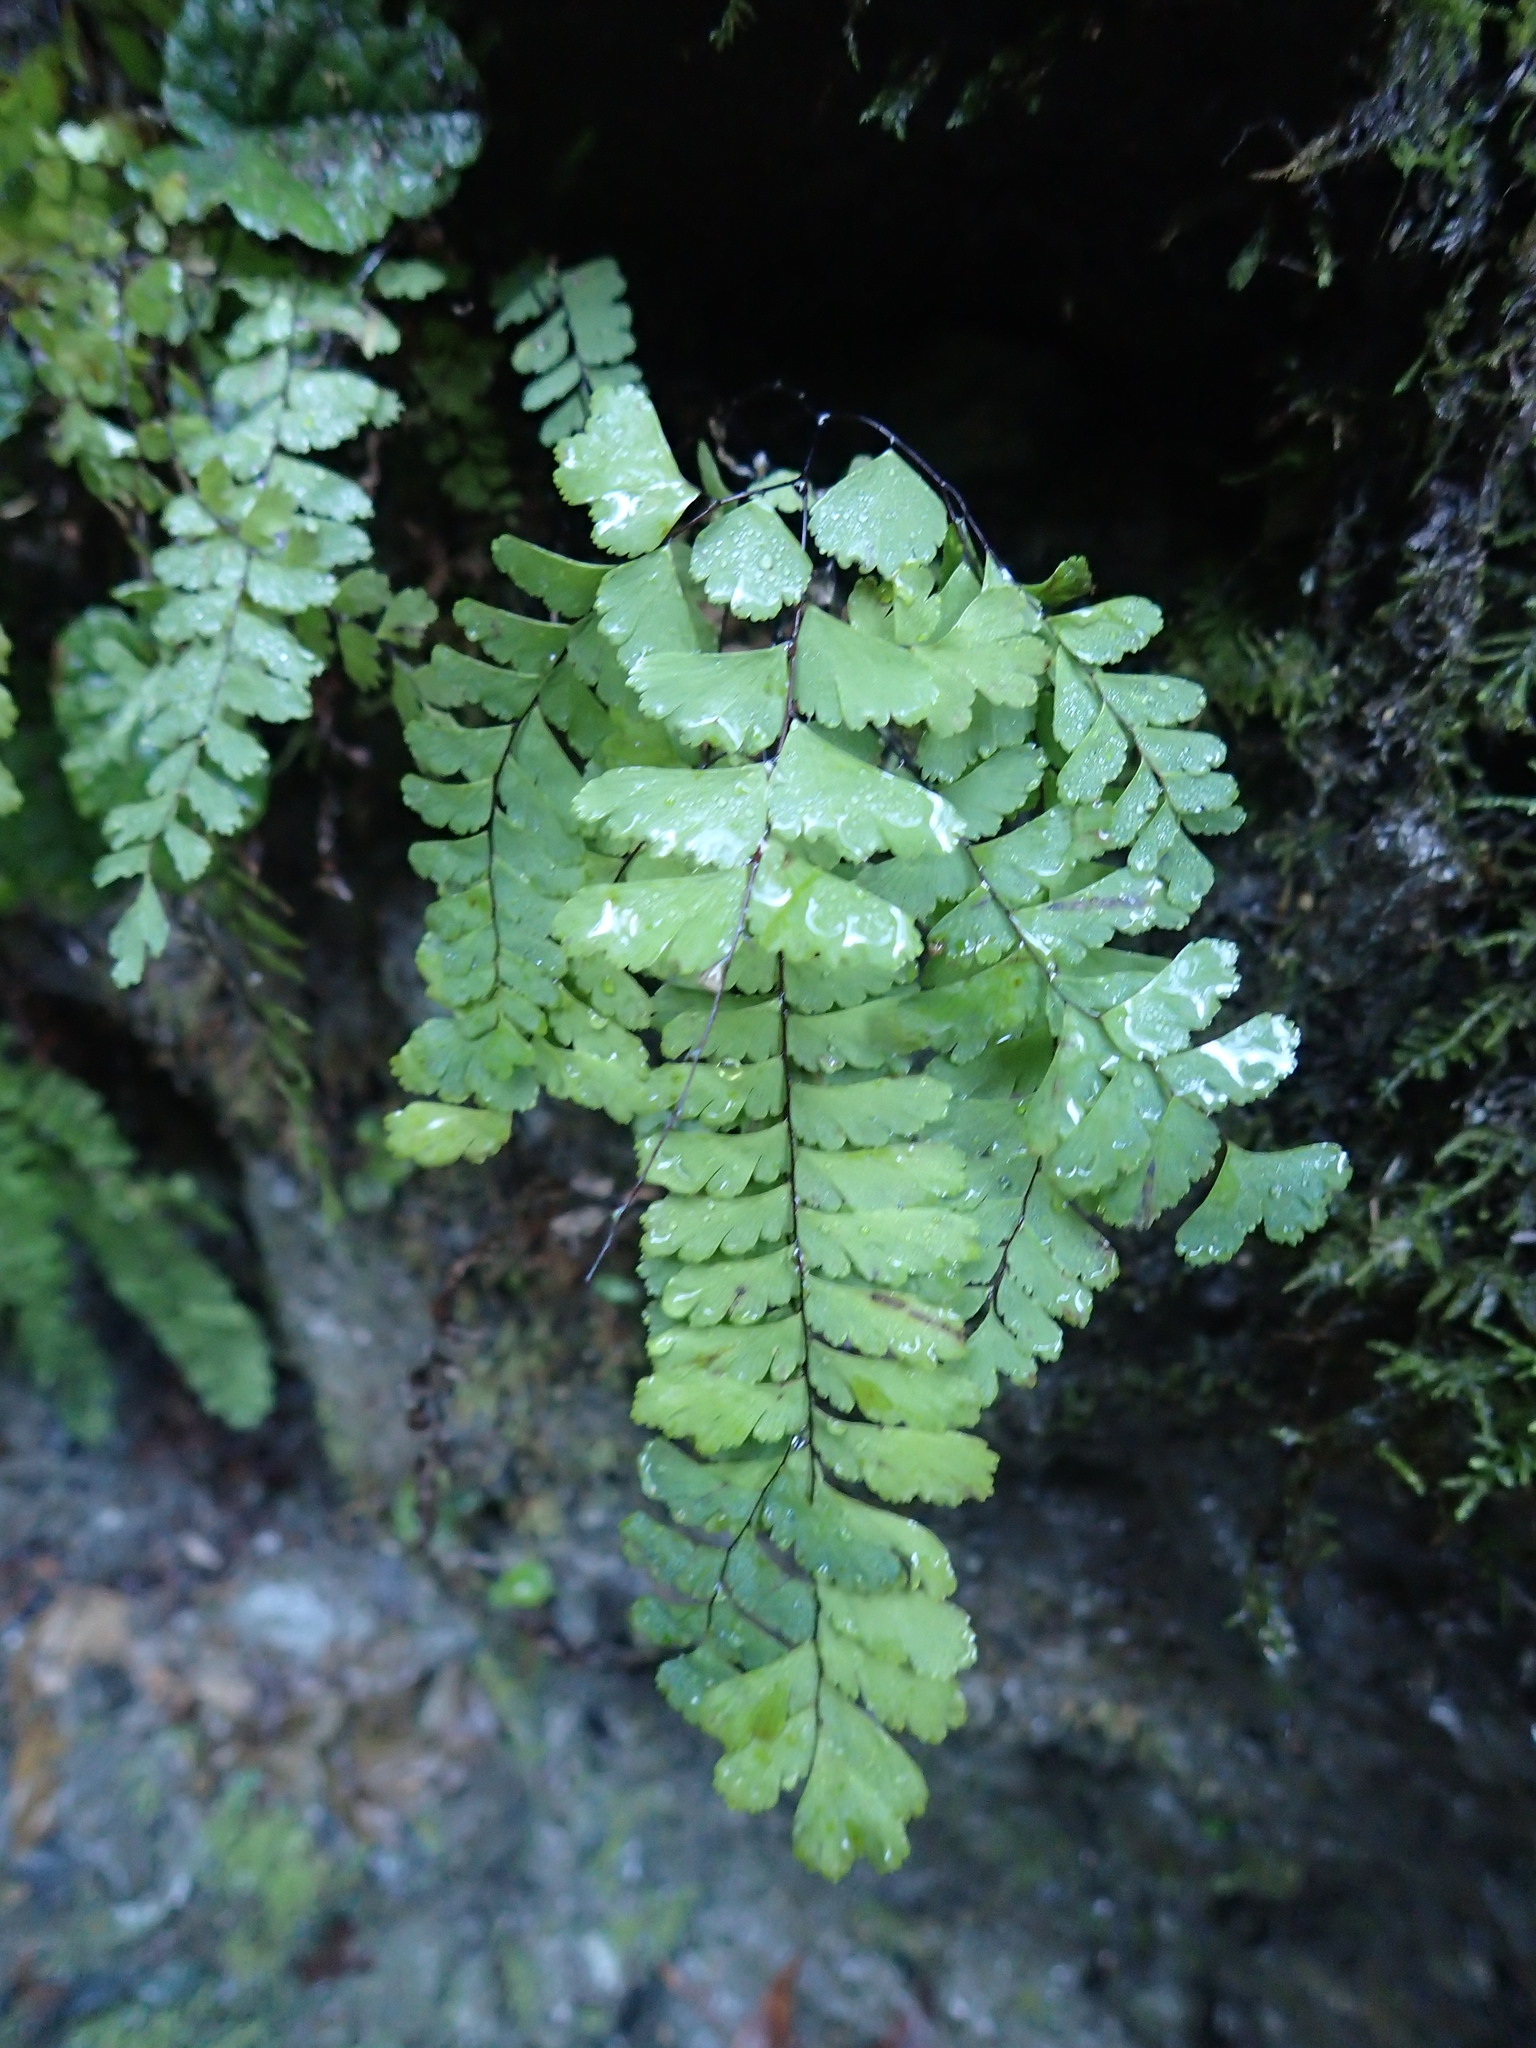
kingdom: Plantae
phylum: Tracheophyta
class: Polypodiopsida
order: Polypodiales
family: Pteridaceae
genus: Adiantum
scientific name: Adiantum aleuticum
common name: Aleutian maidenhair fern
